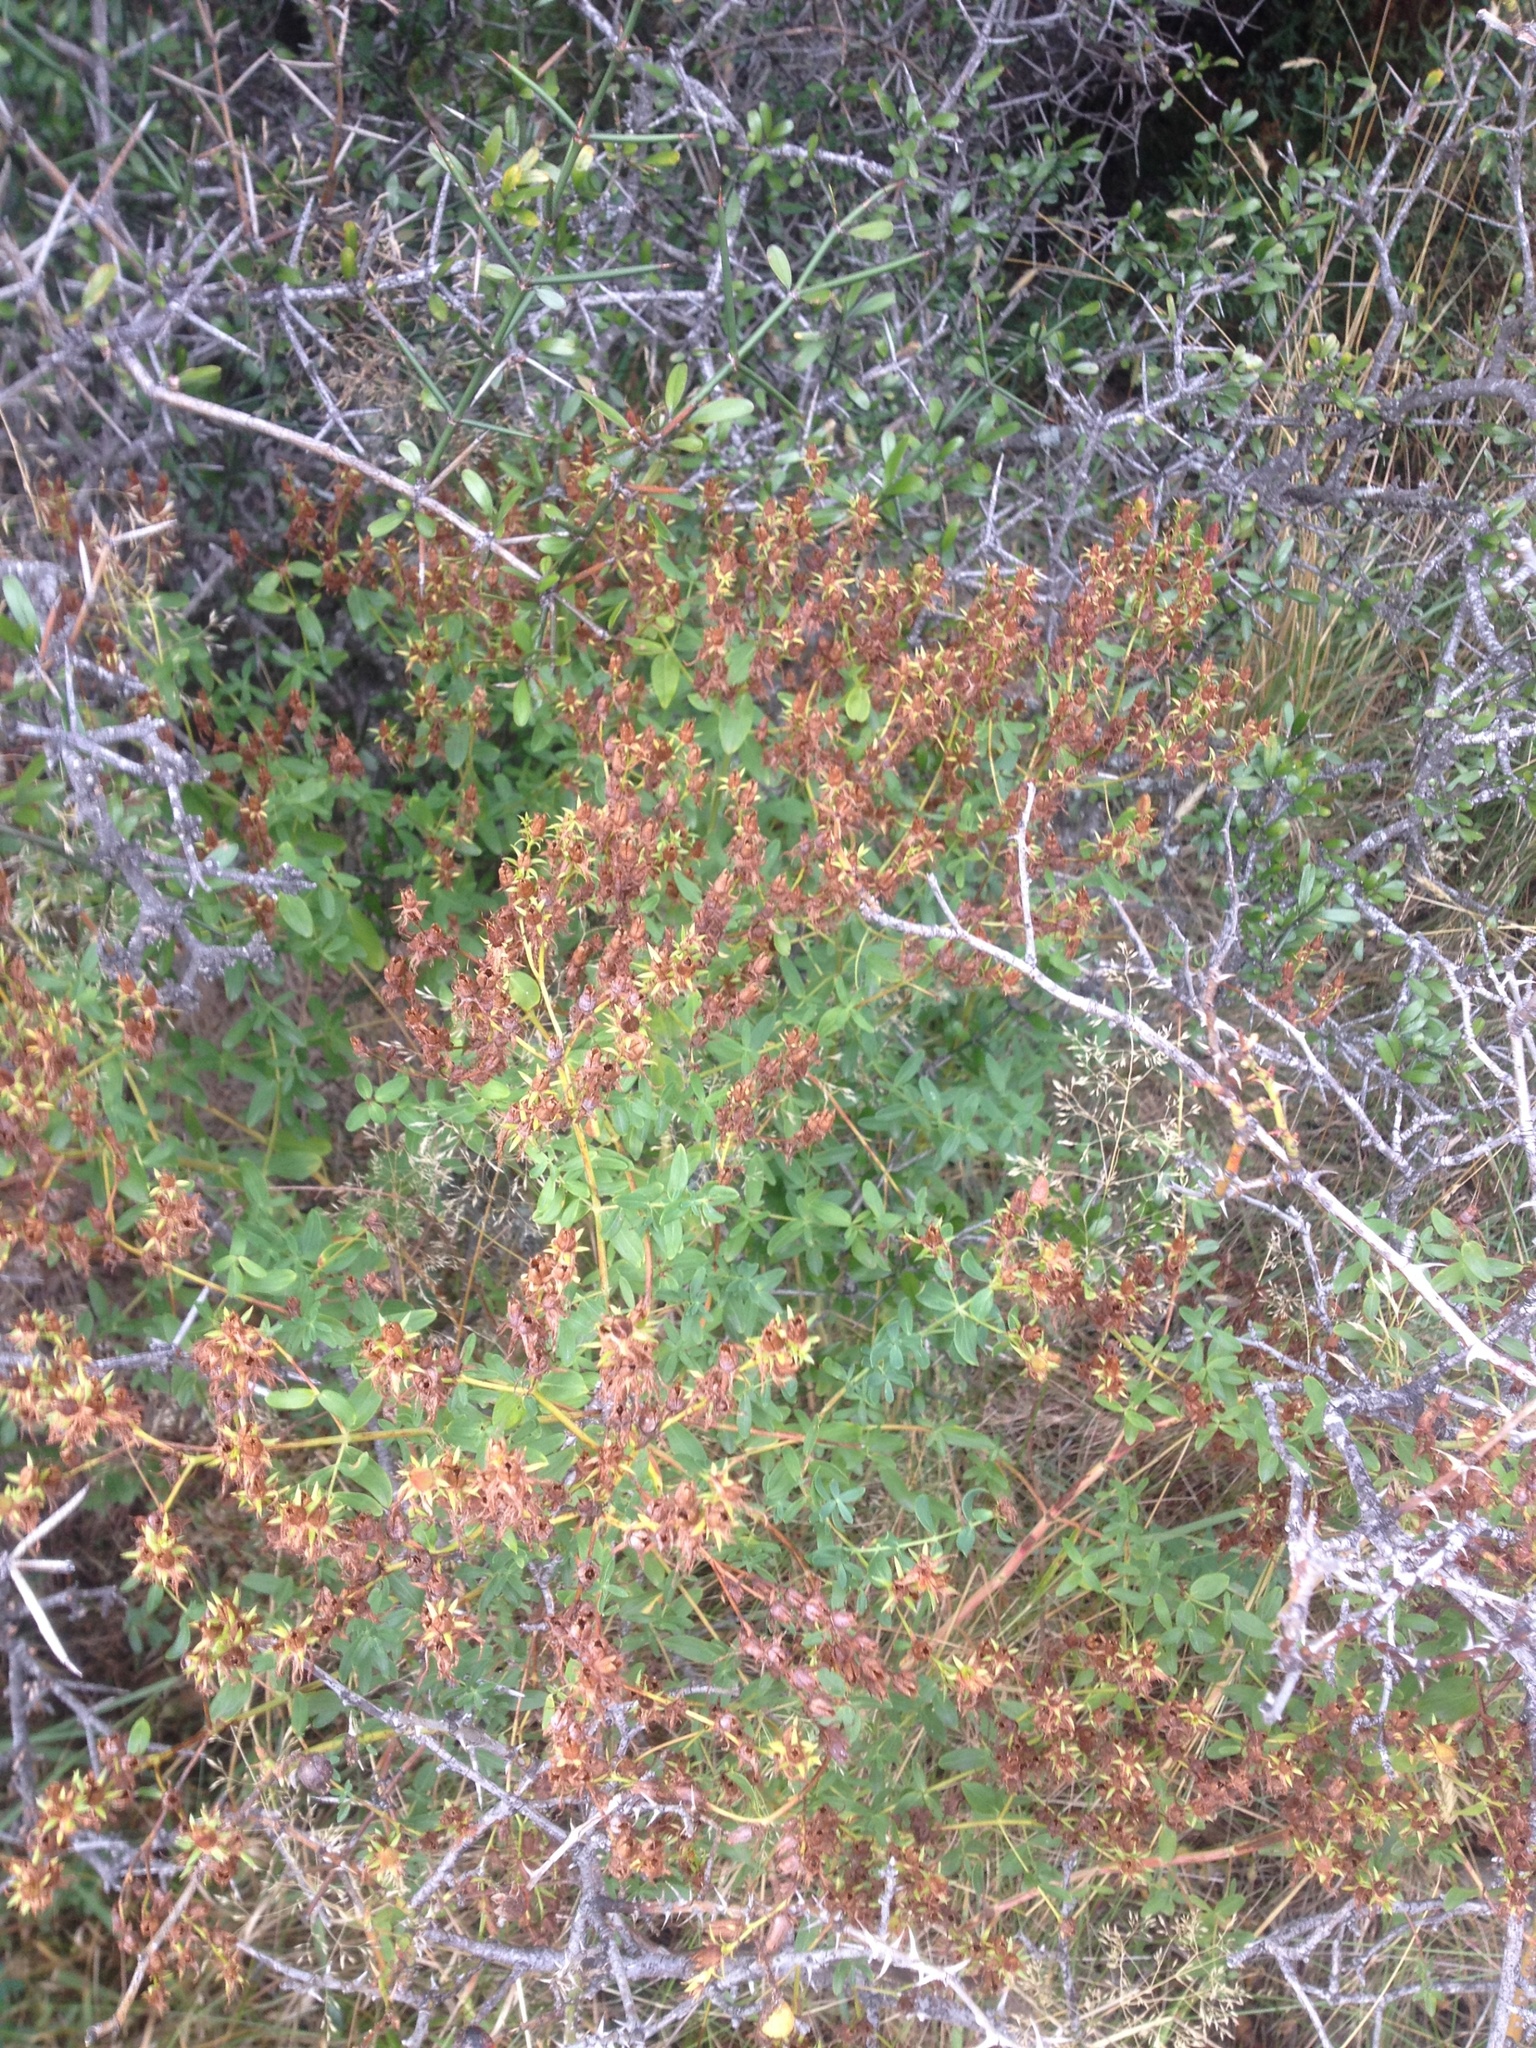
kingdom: Plantae
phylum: Tracheophyta
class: Magnoliopsida
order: Malpighiales
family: Hypericaceae
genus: Hypericum
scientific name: Hypericum perforatum
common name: Common st. johnswort
